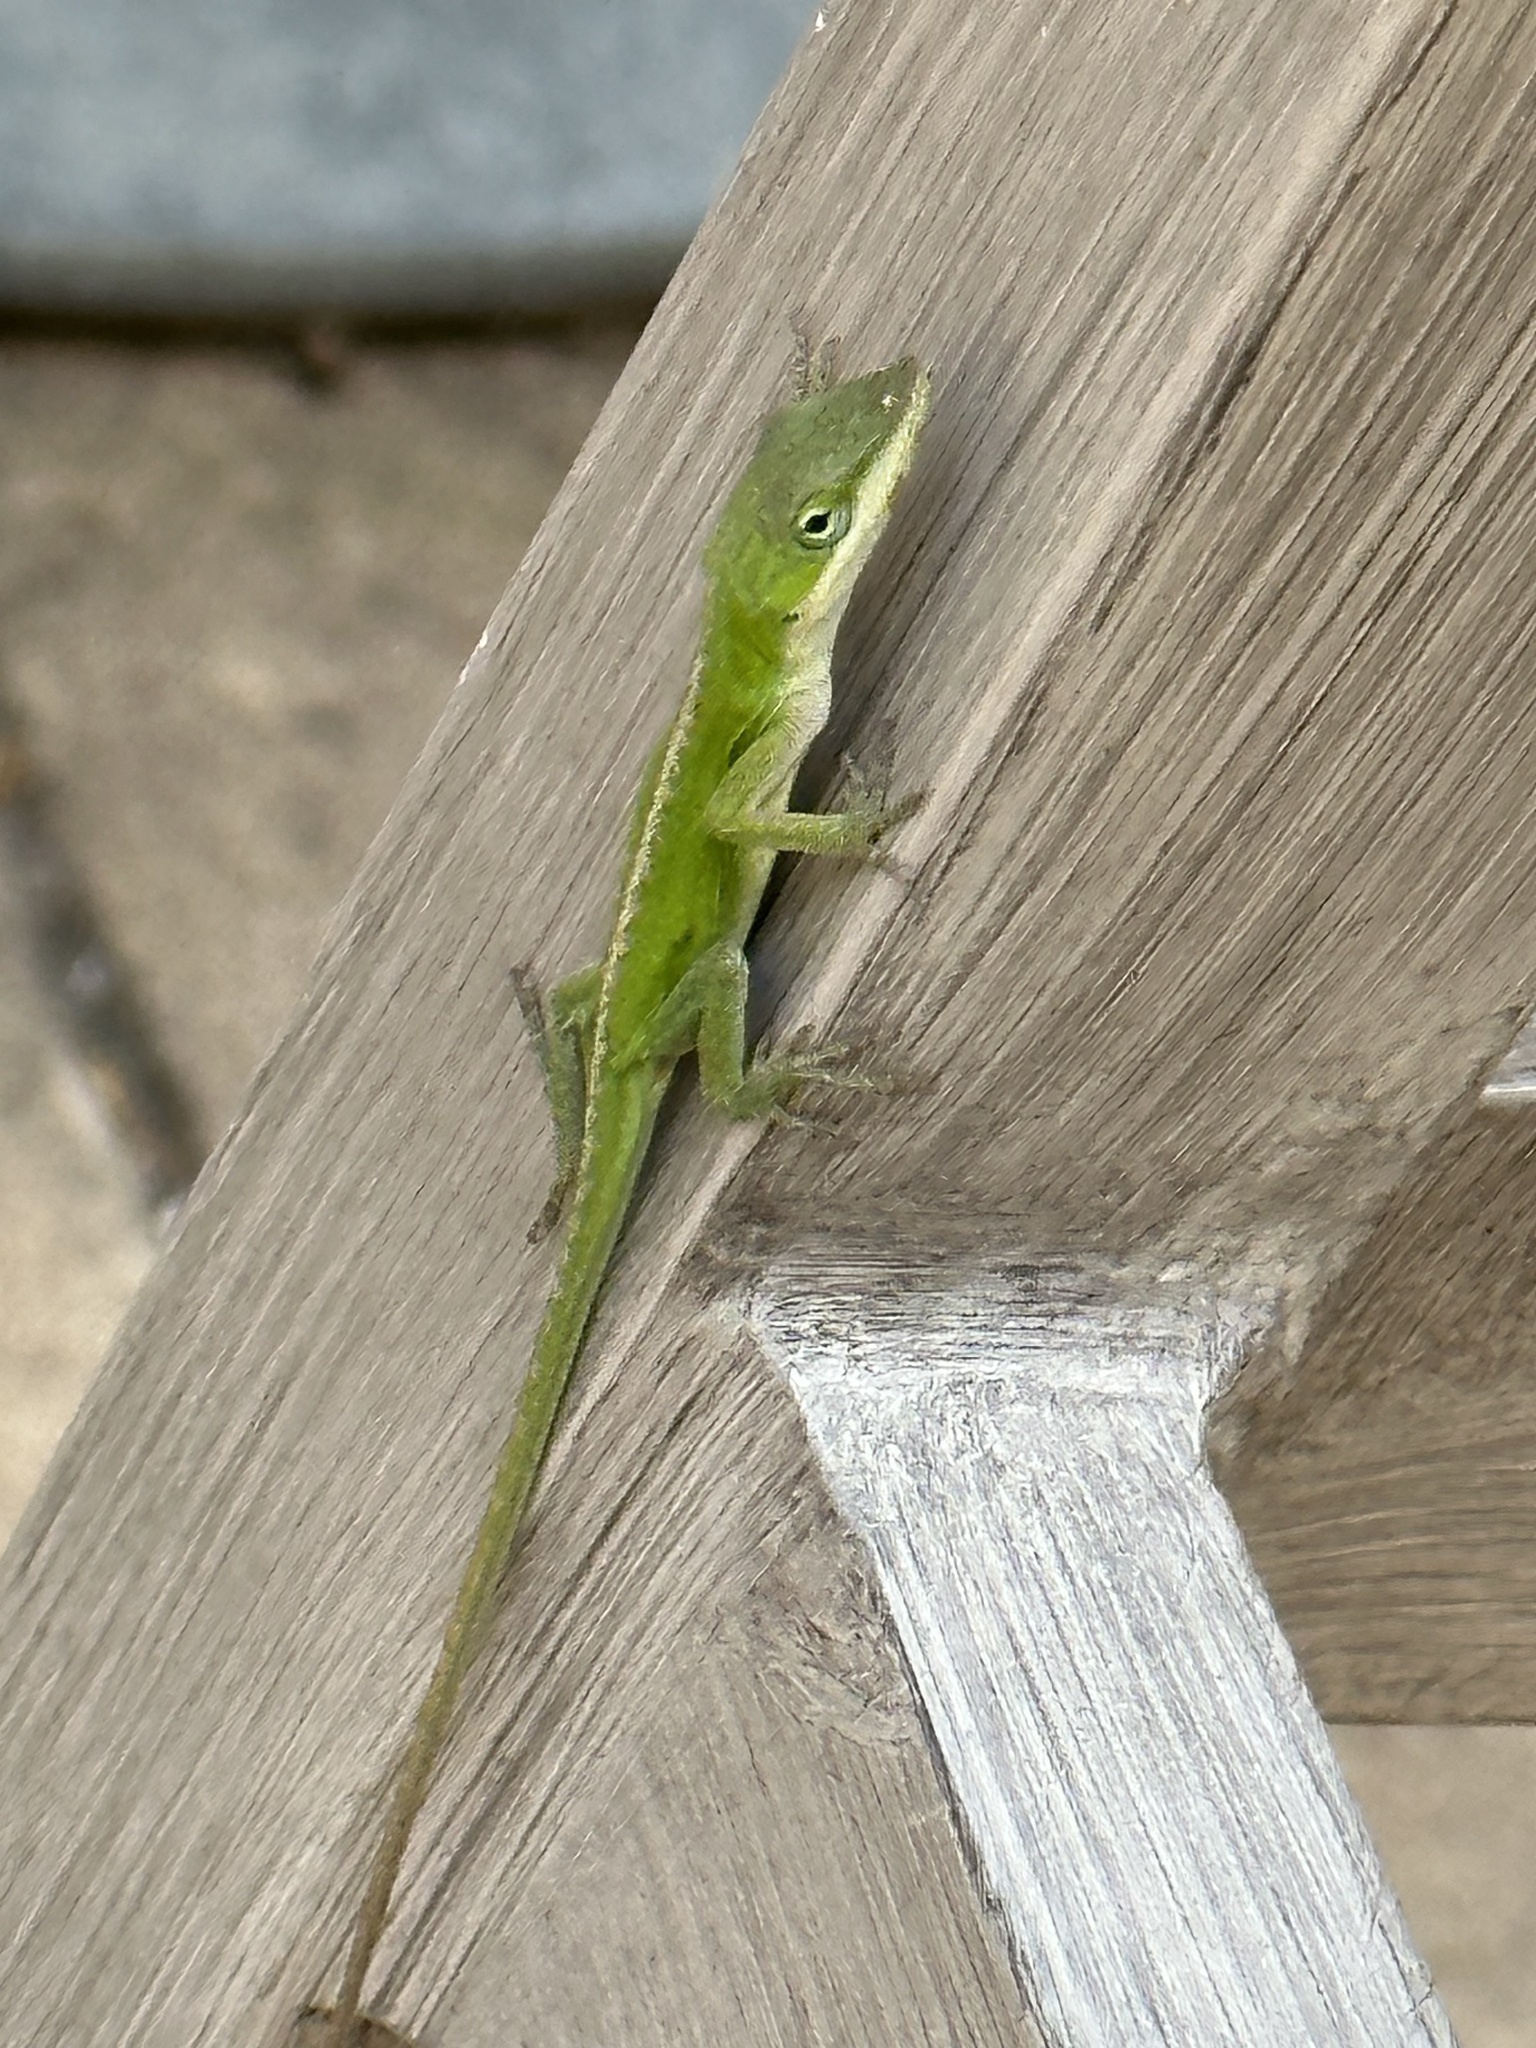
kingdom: Animalia
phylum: Chordata
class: Squamata
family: Dactyloidae
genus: Anolis
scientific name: Anolis carolinensis
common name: Green anole
